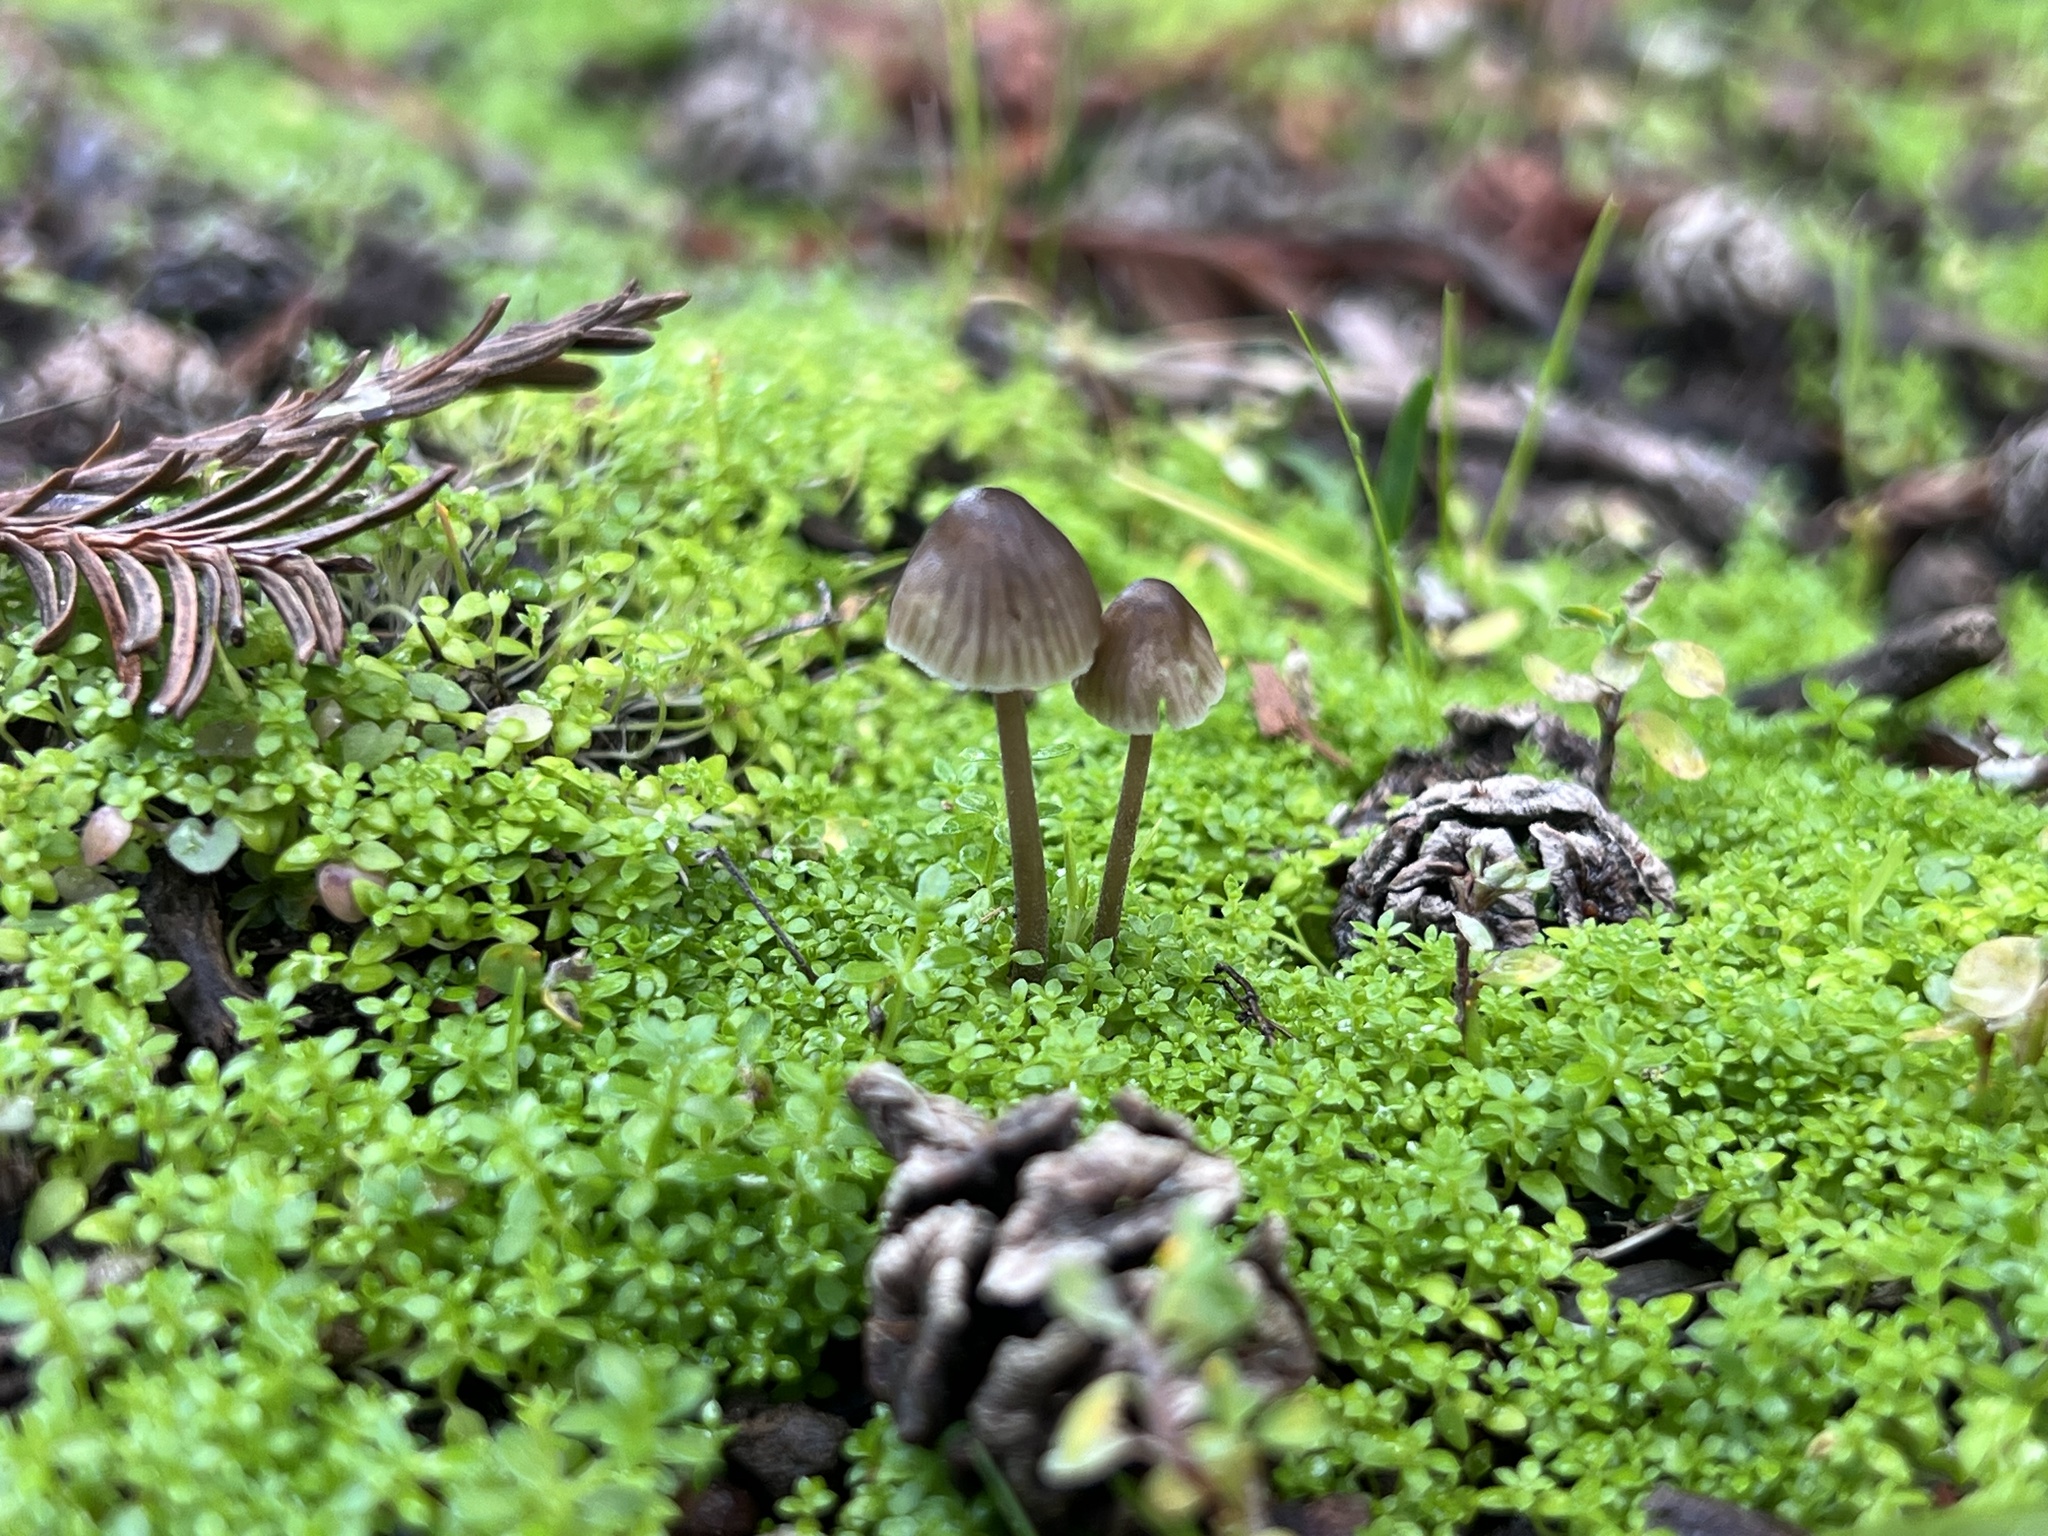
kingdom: Fungi
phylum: Basidiomycota
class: Agaricomycetes
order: Agaricales
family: Mycenaceae
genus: Mycena
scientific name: Mycena leptocephala
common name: Nitrous bonnet
